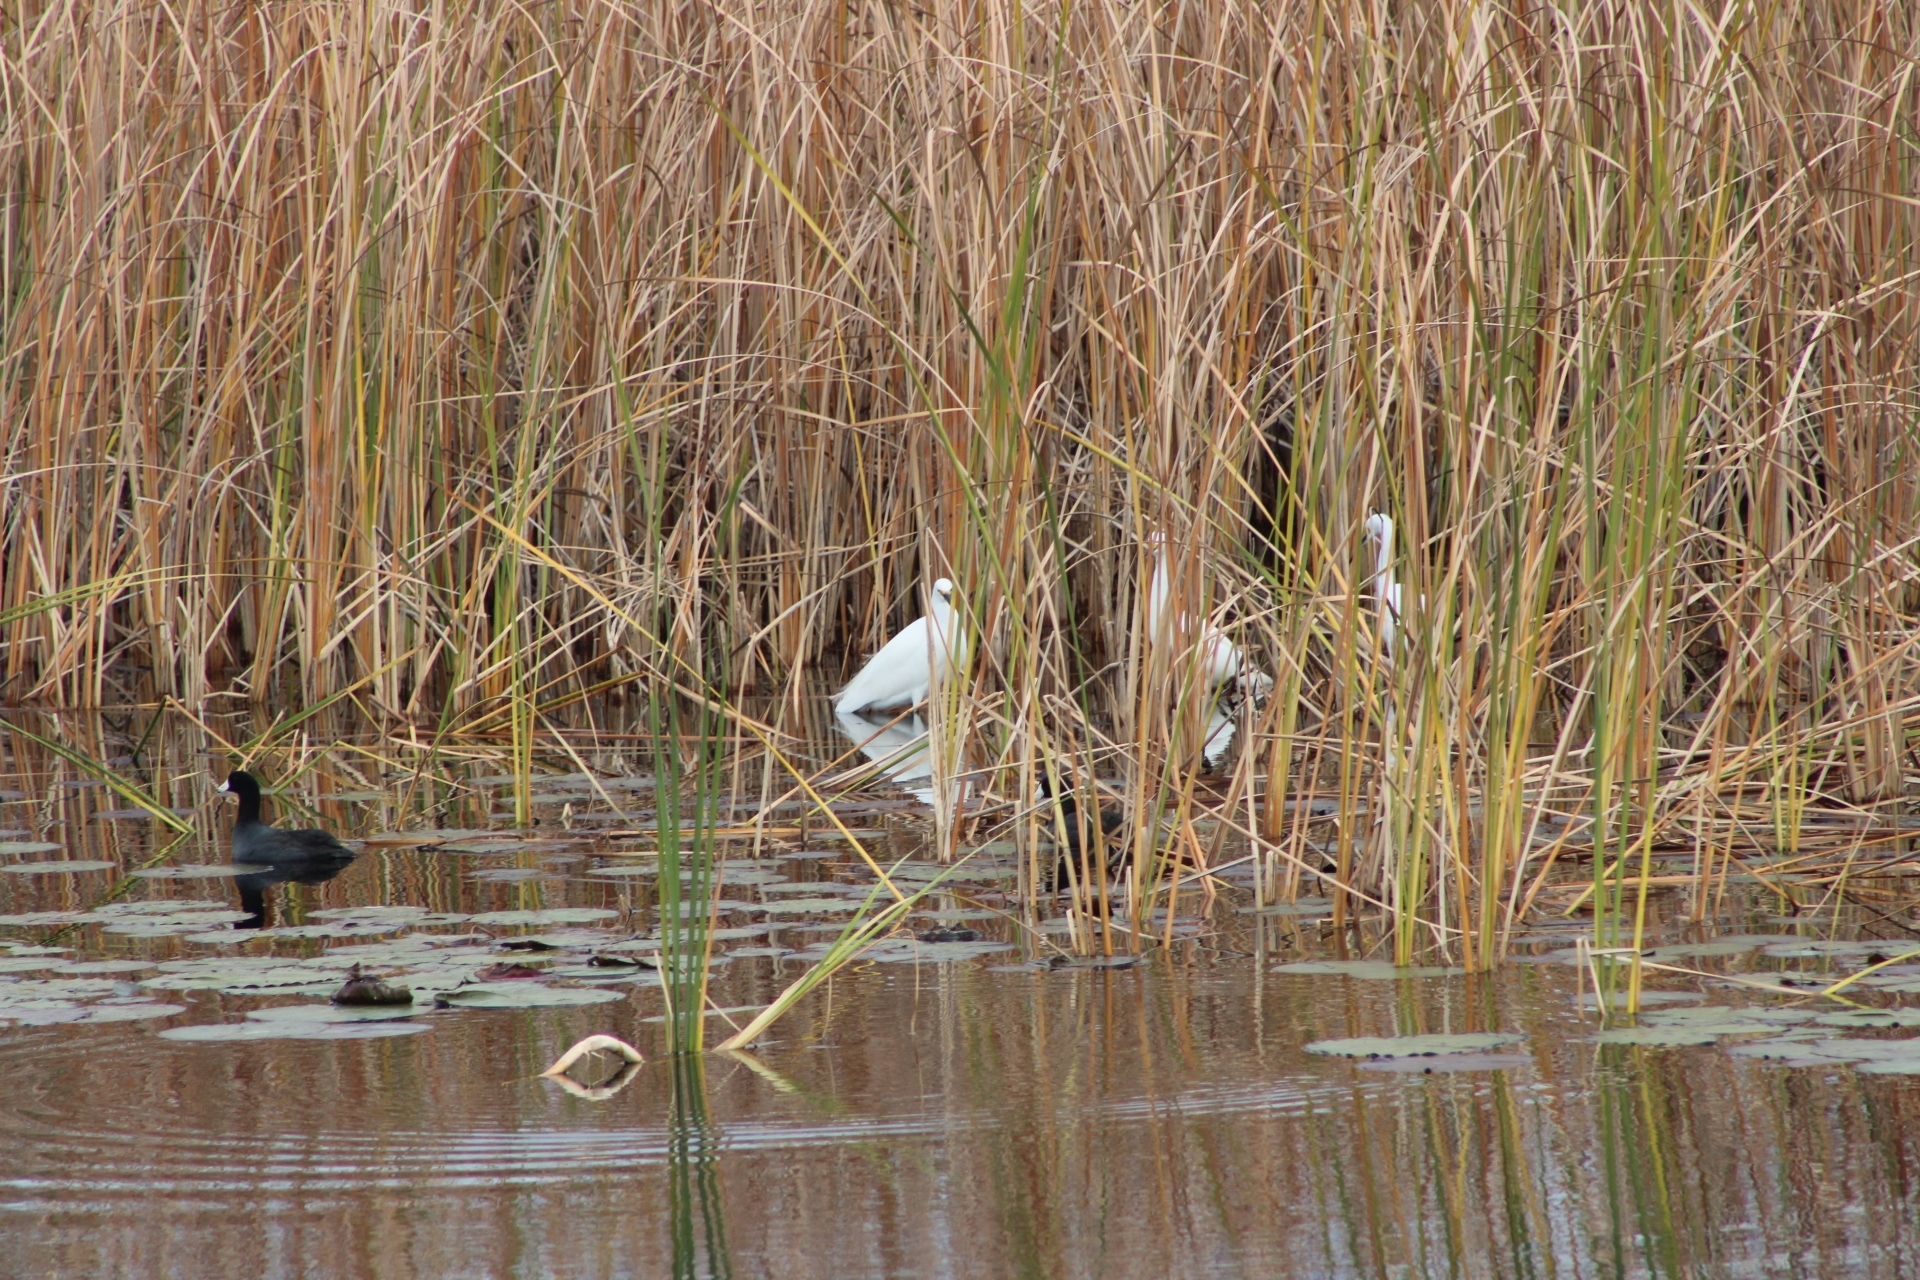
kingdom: Animalia
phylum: Chordata
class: Aves
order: Gruiformes
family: Rallidae
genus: Fulica
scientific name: Fulica americana
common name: American coot
